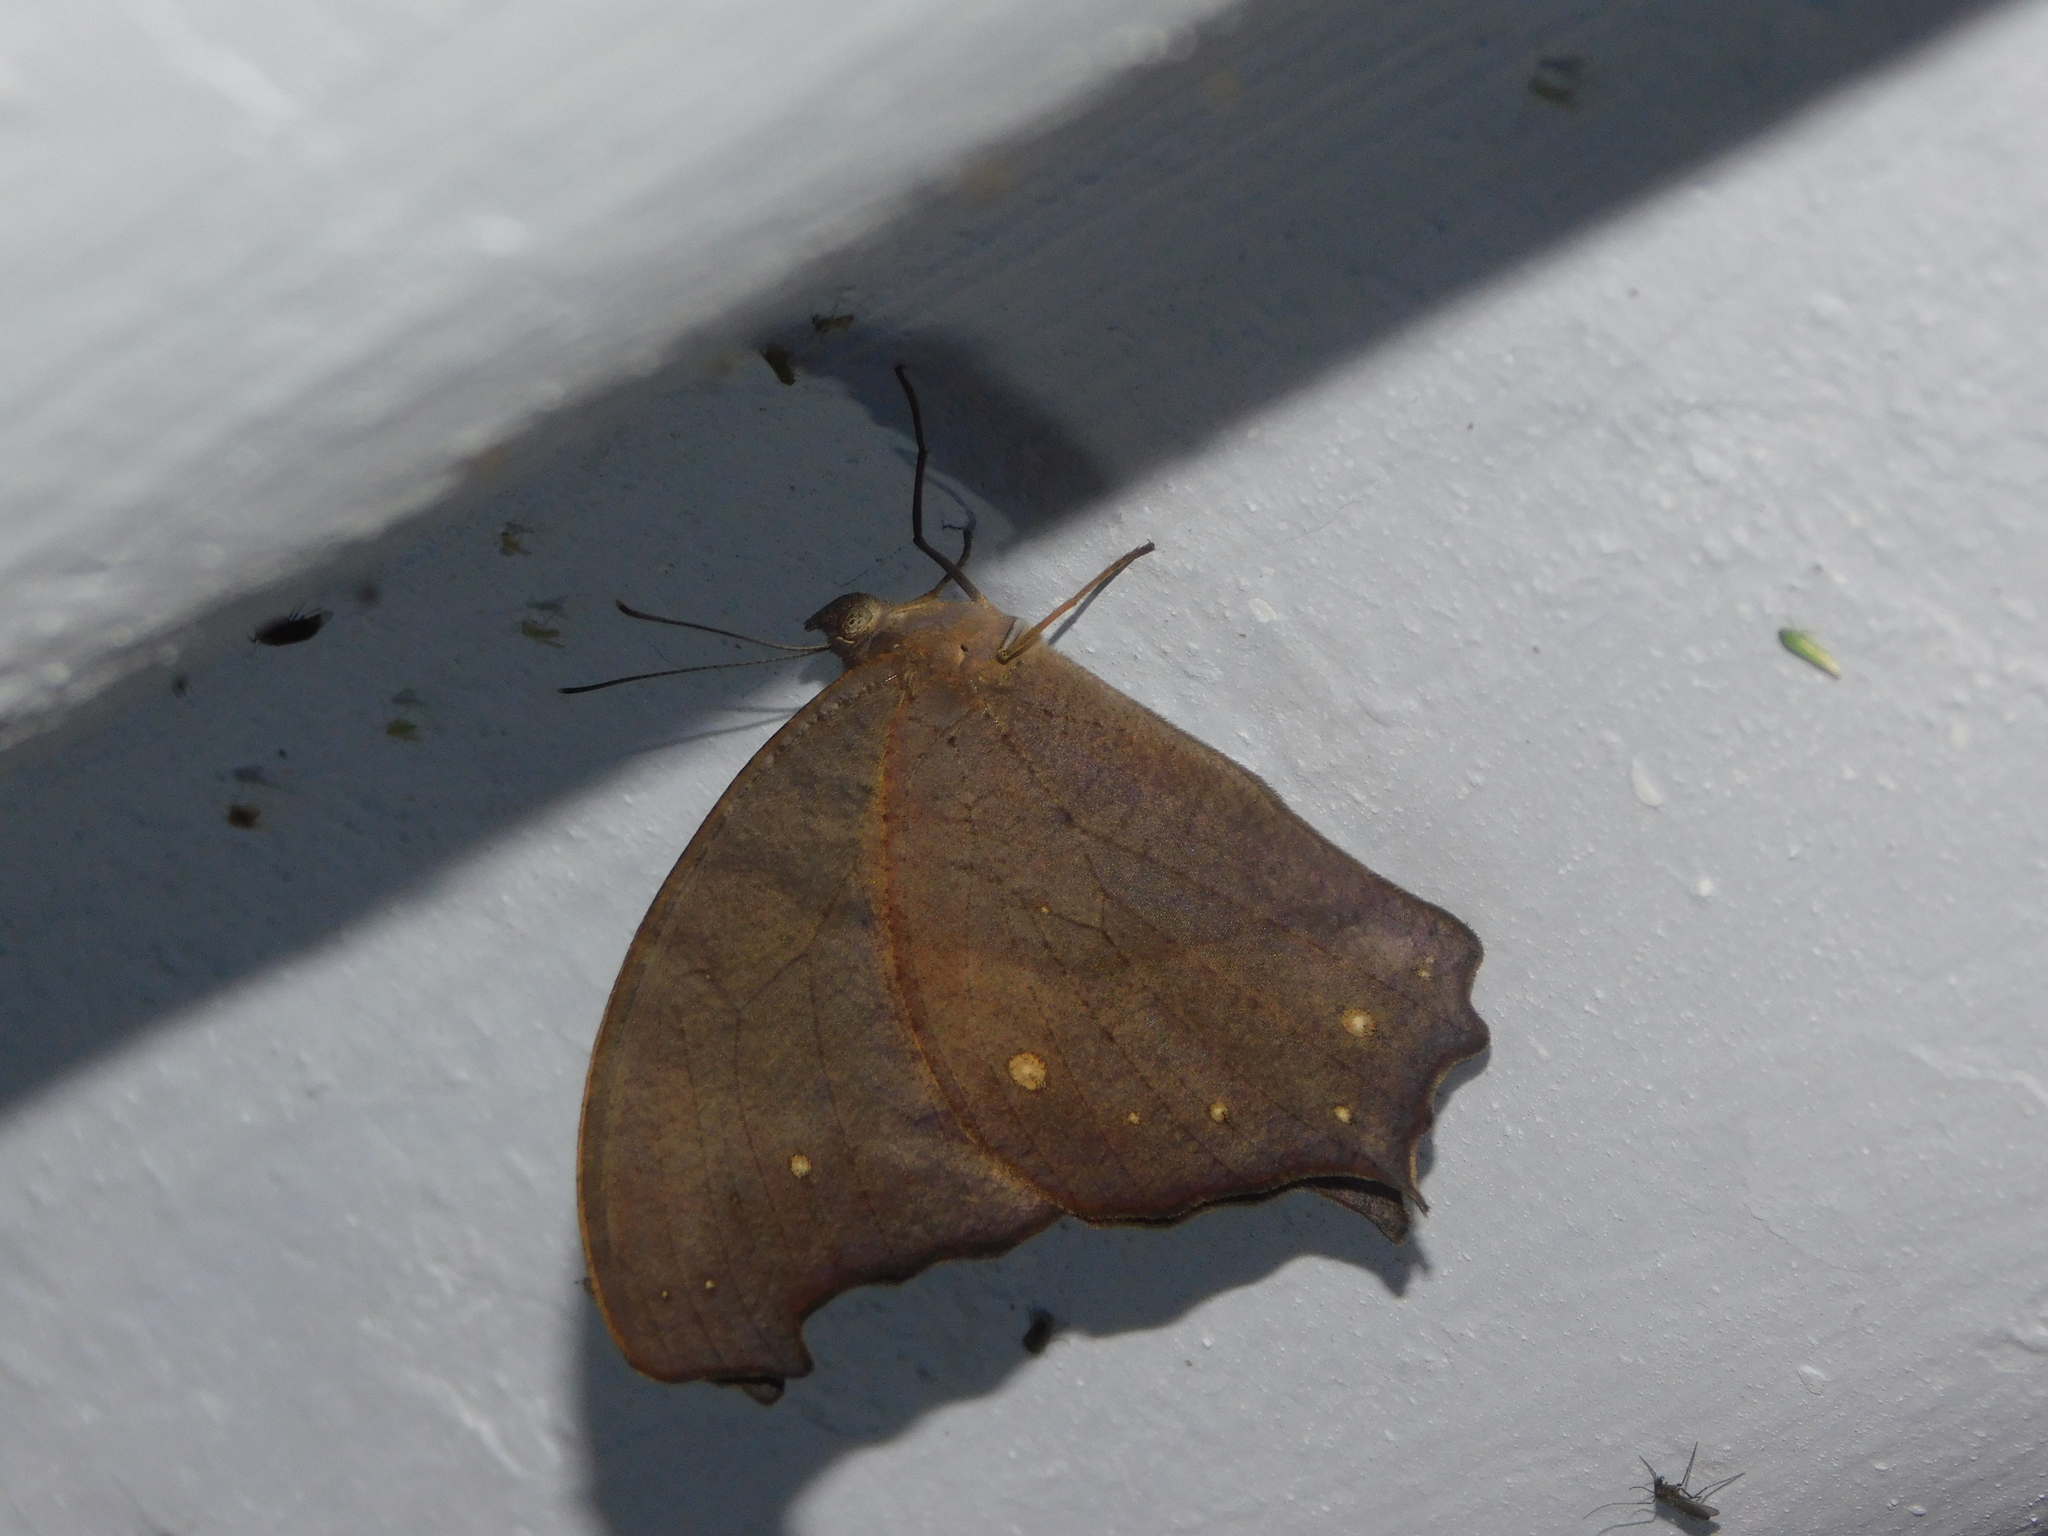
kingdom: Animalia
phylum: Arthropoda
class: Insecta
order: Lepidoptera
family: Nymphalidae
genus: Melanitis
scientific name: Melanitis leda
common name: Twilight brown
